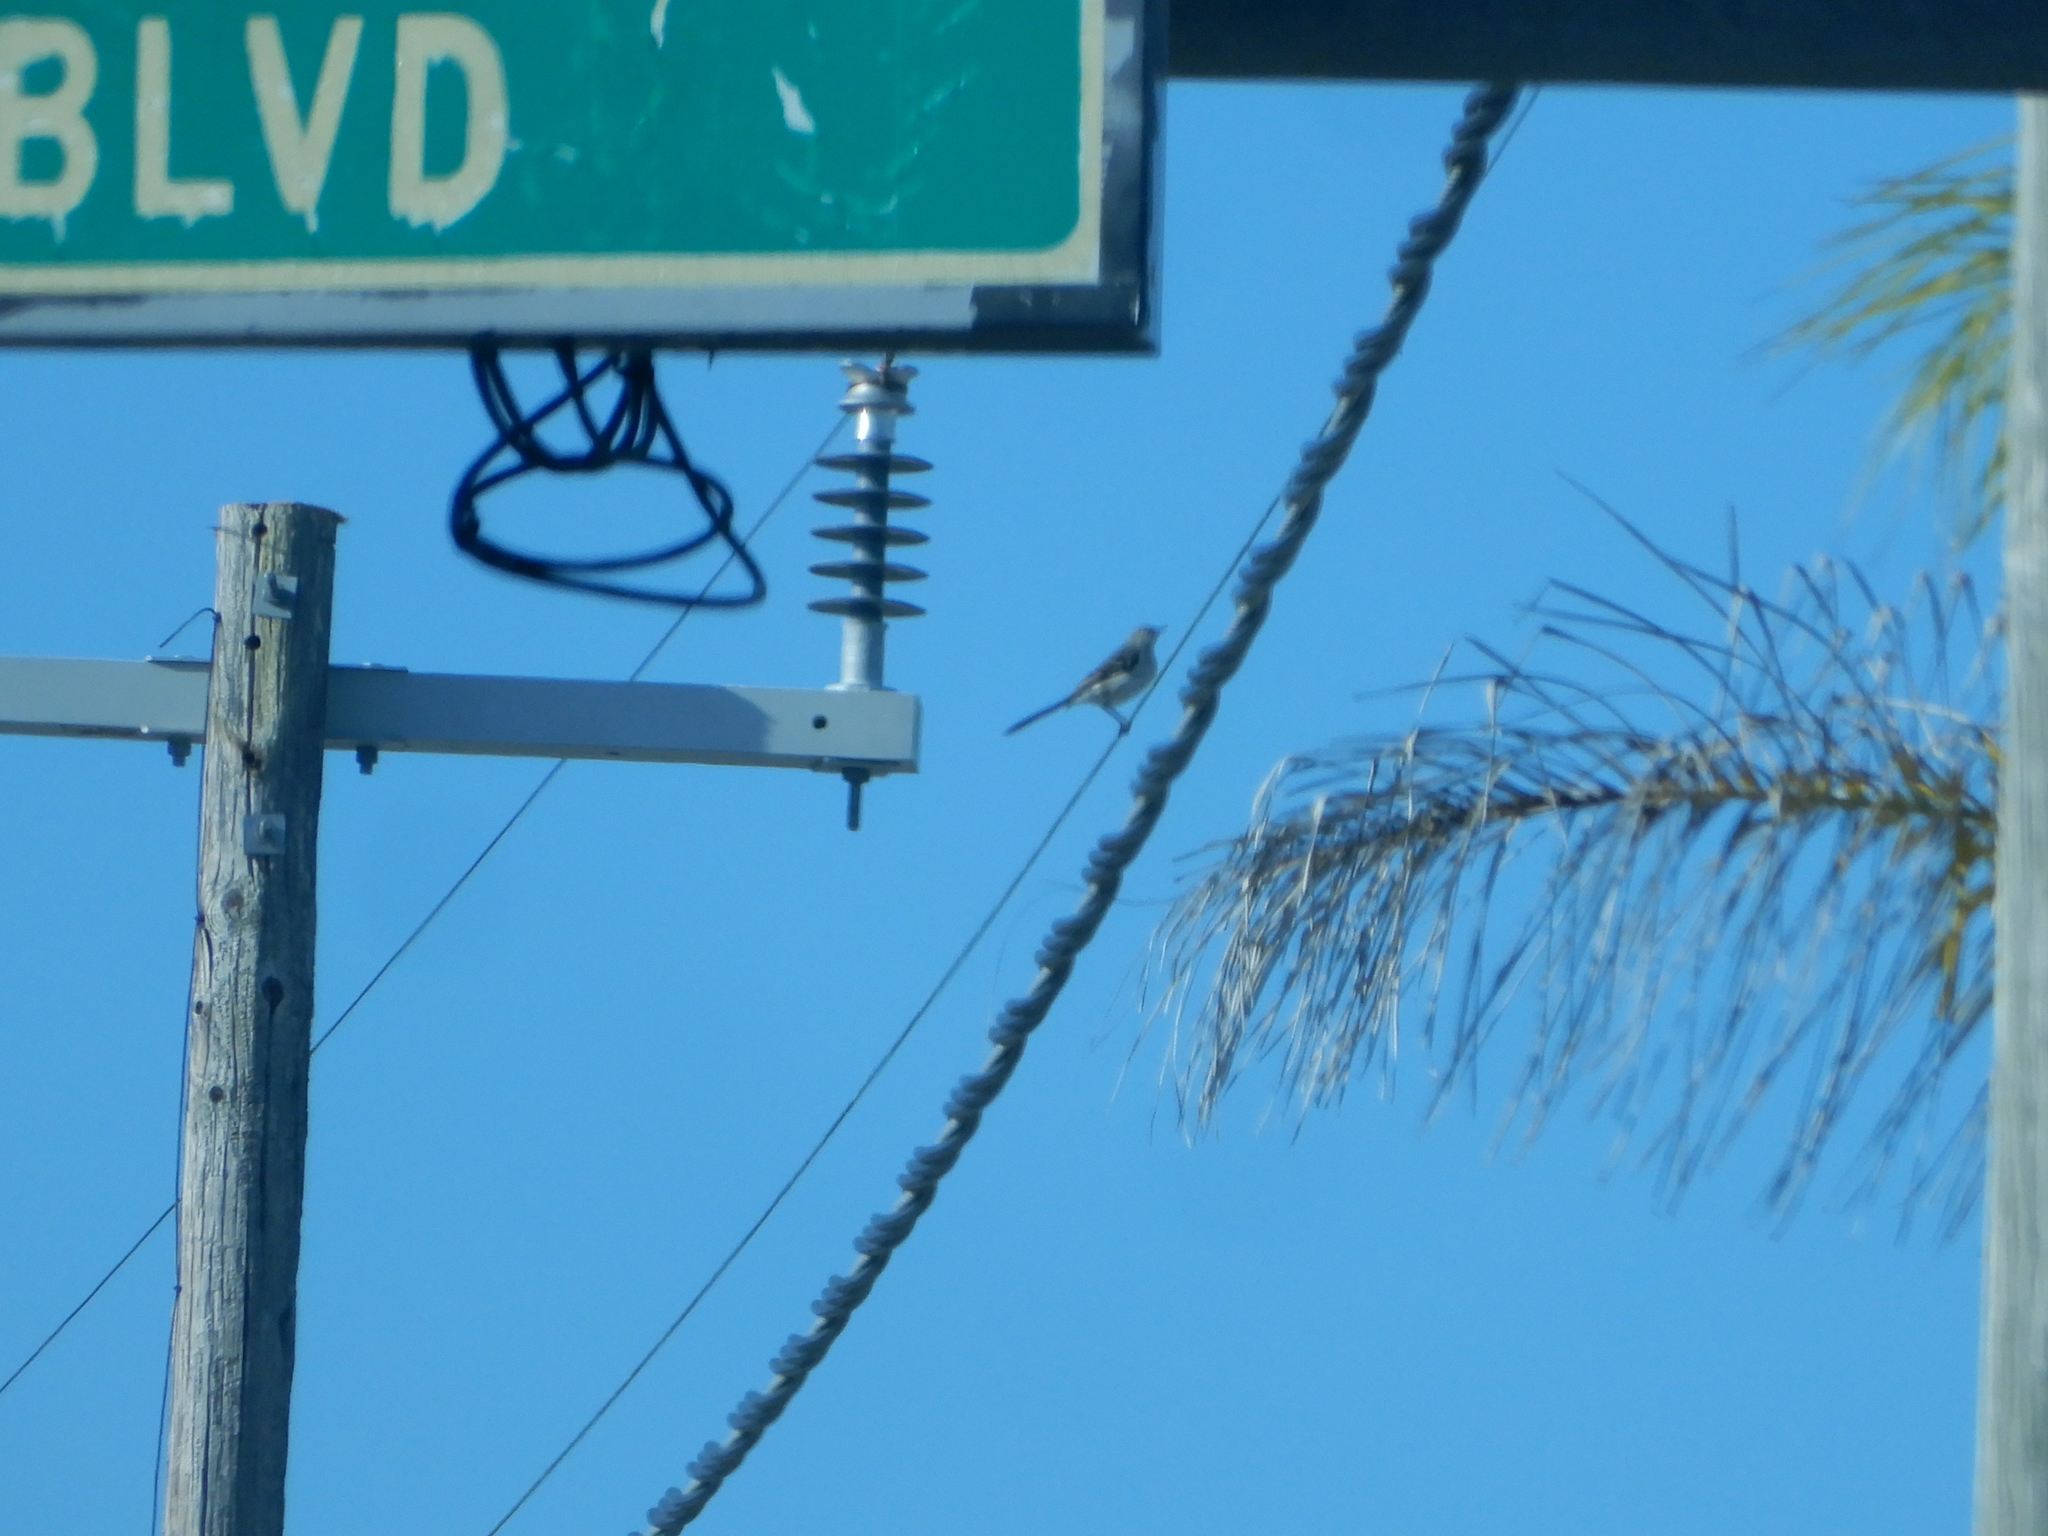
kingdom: Animalia
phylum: Chordata
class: Aves
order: Passeriformes
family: Mimidae
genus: Mimus
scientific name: Mimus polyglottos
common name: Northern mockingbird
